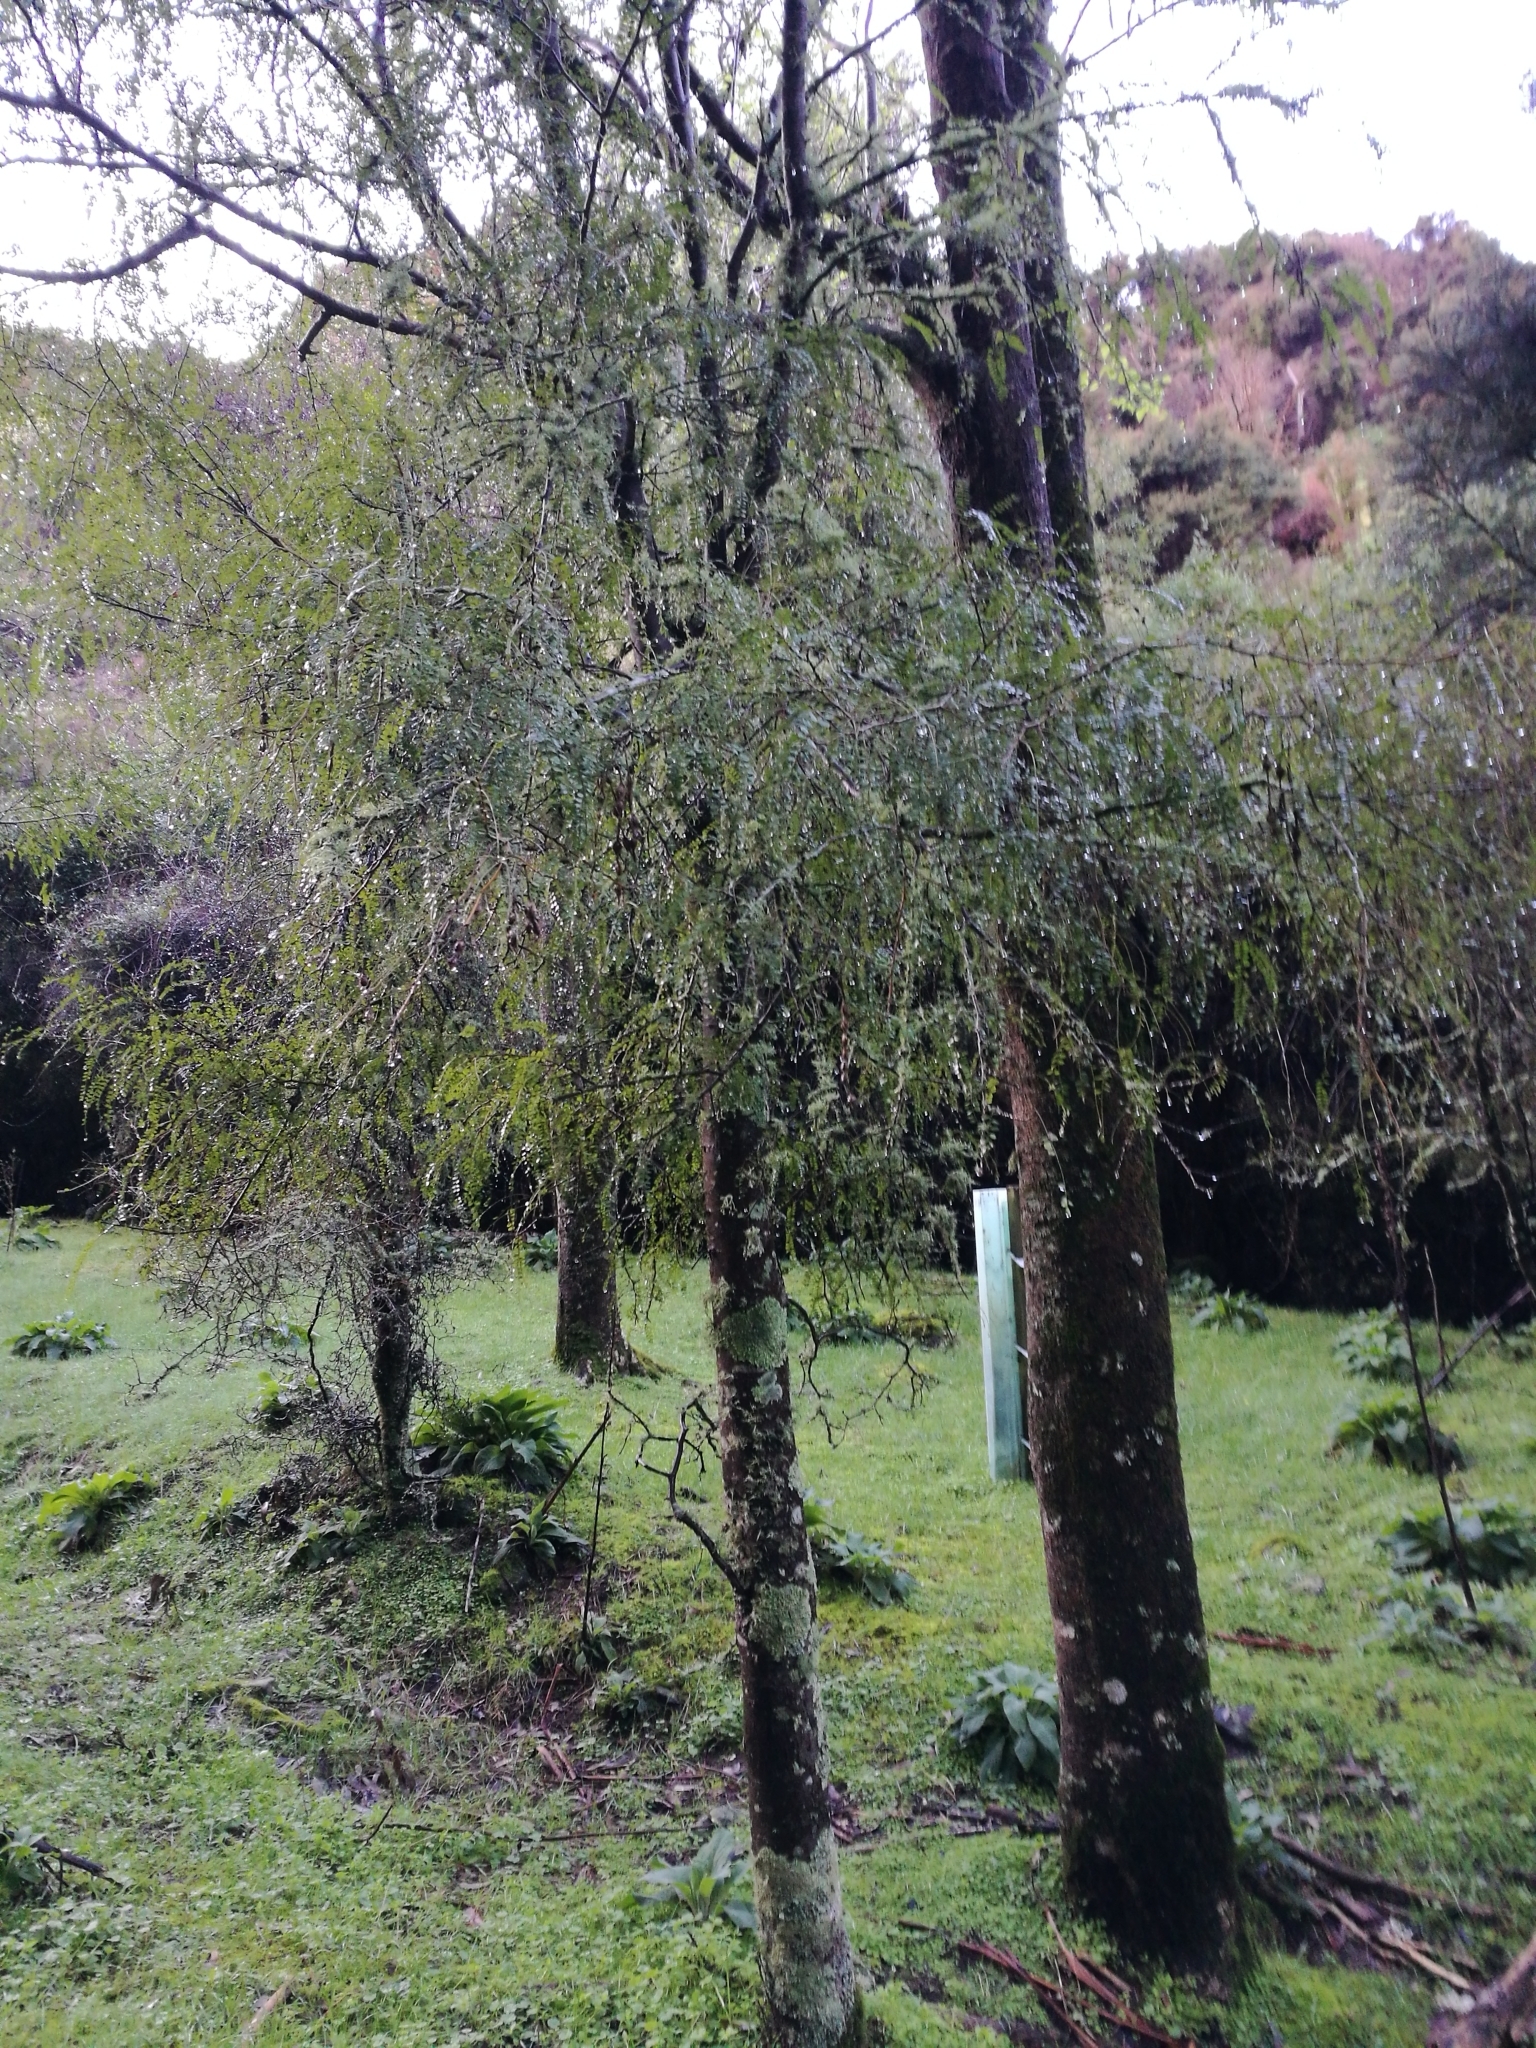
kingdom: Plantae
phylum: Tracheophyta
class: Magnoliopsida
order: Fabales
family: Fabaceae
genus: Sophora
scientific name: Sophora microphylla
